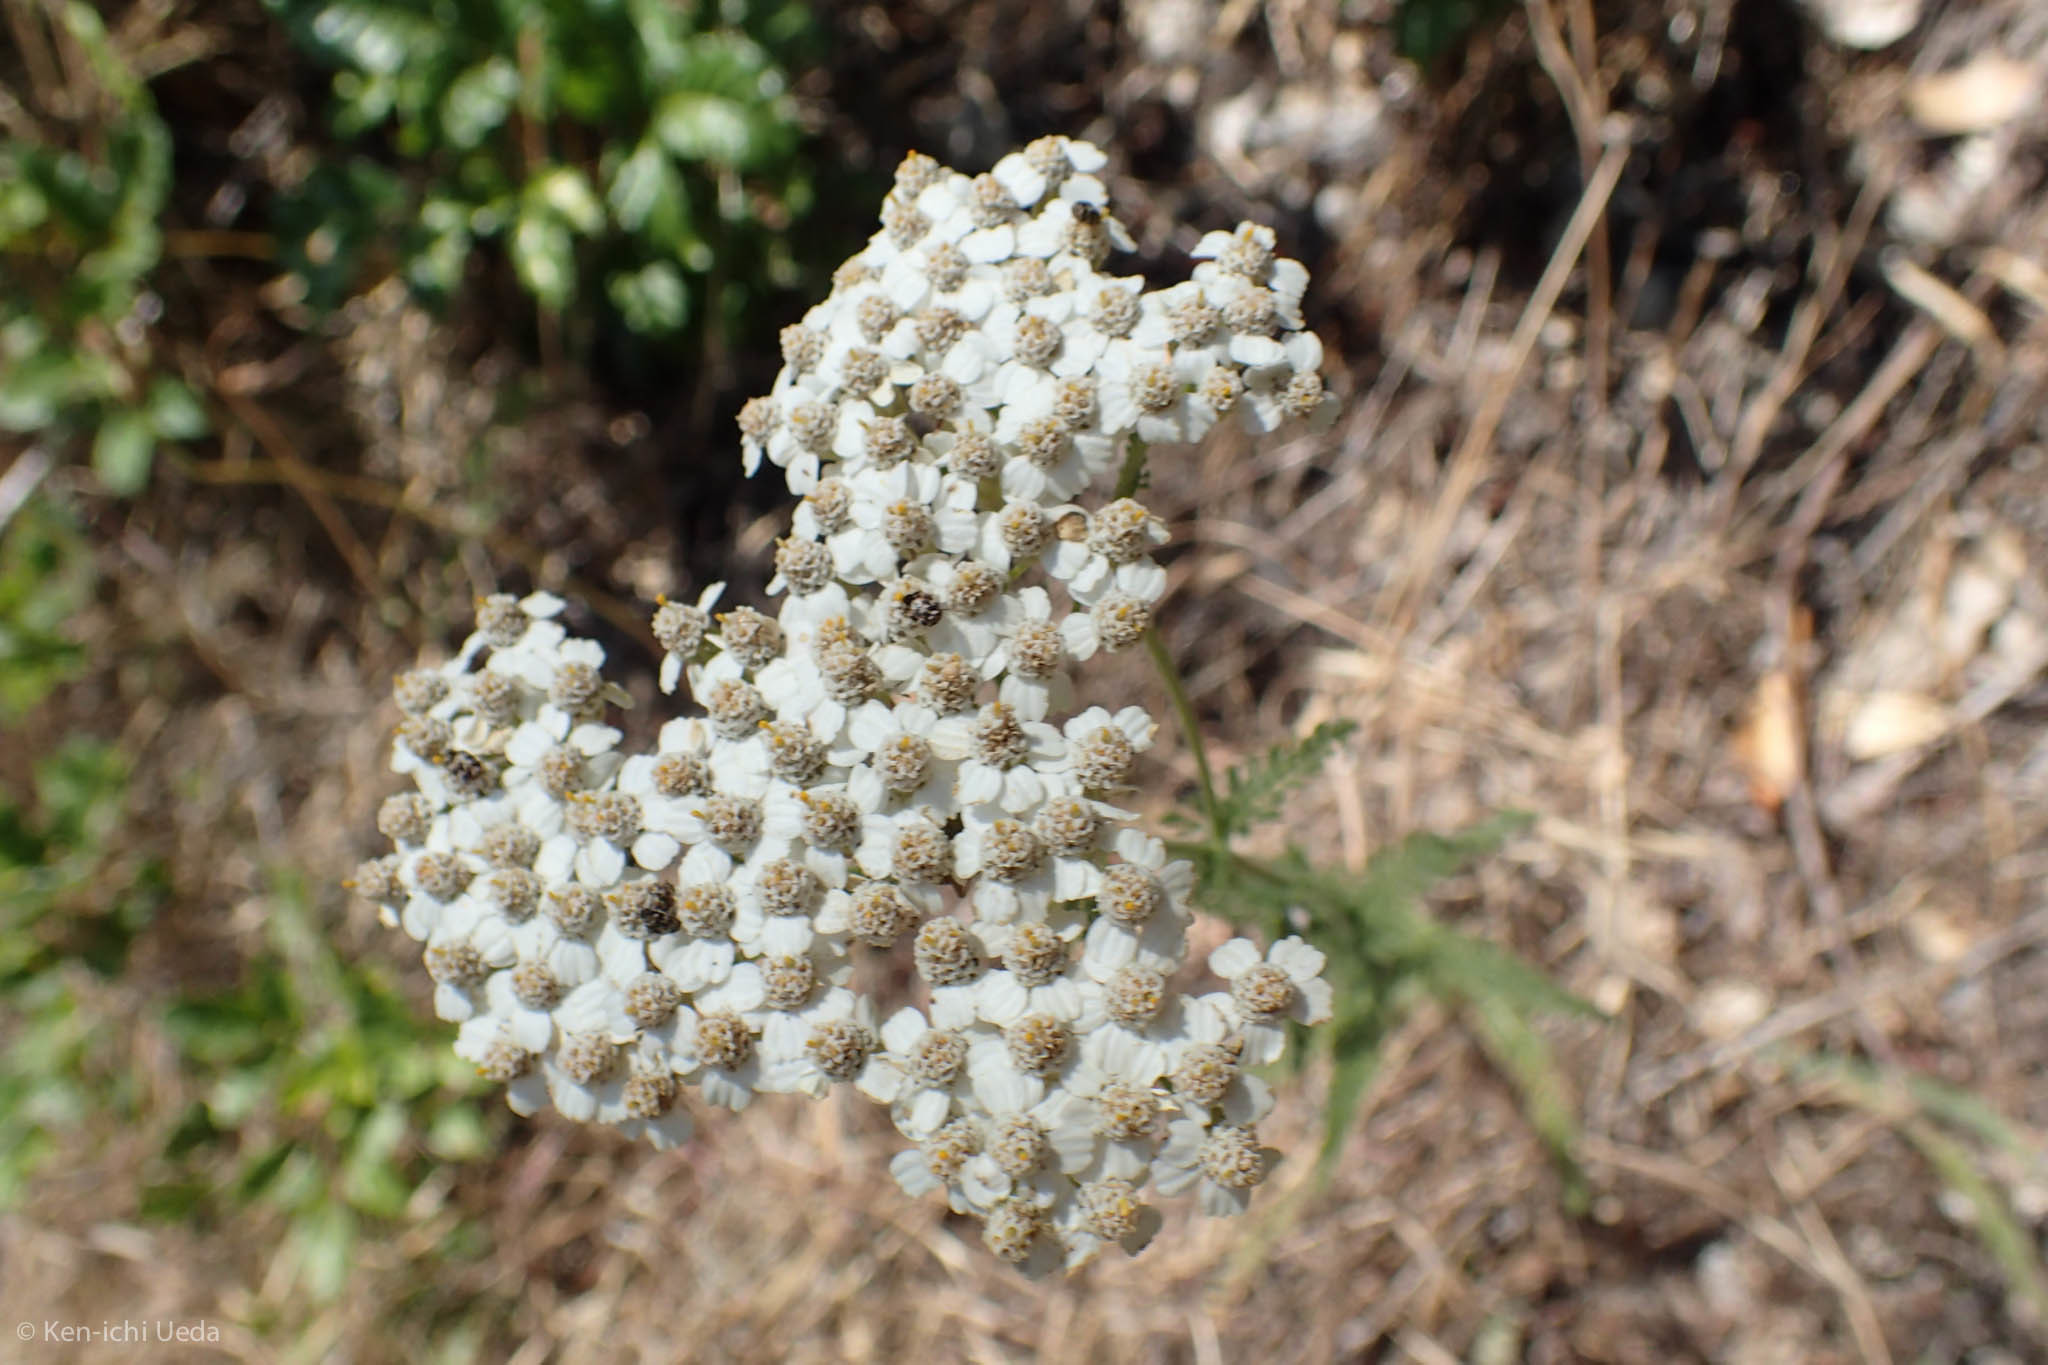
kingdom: Plantae
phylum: Tracheophyta
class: Magnoliopsida
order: Asterales
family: Asteraceae
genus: Achillea
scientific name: Achillea millefolium
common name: Yarrow
